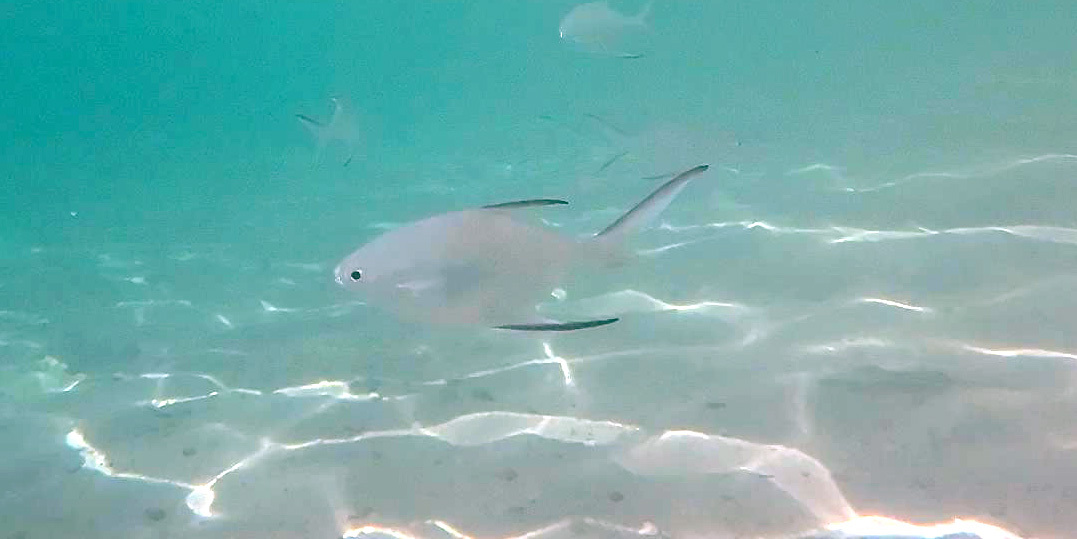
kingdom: Animalia
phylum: Chordata
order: Perciformes
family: Carangidae
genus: Trachinotus
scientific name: Trachinotus baillonii
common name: Smallspotted dart
